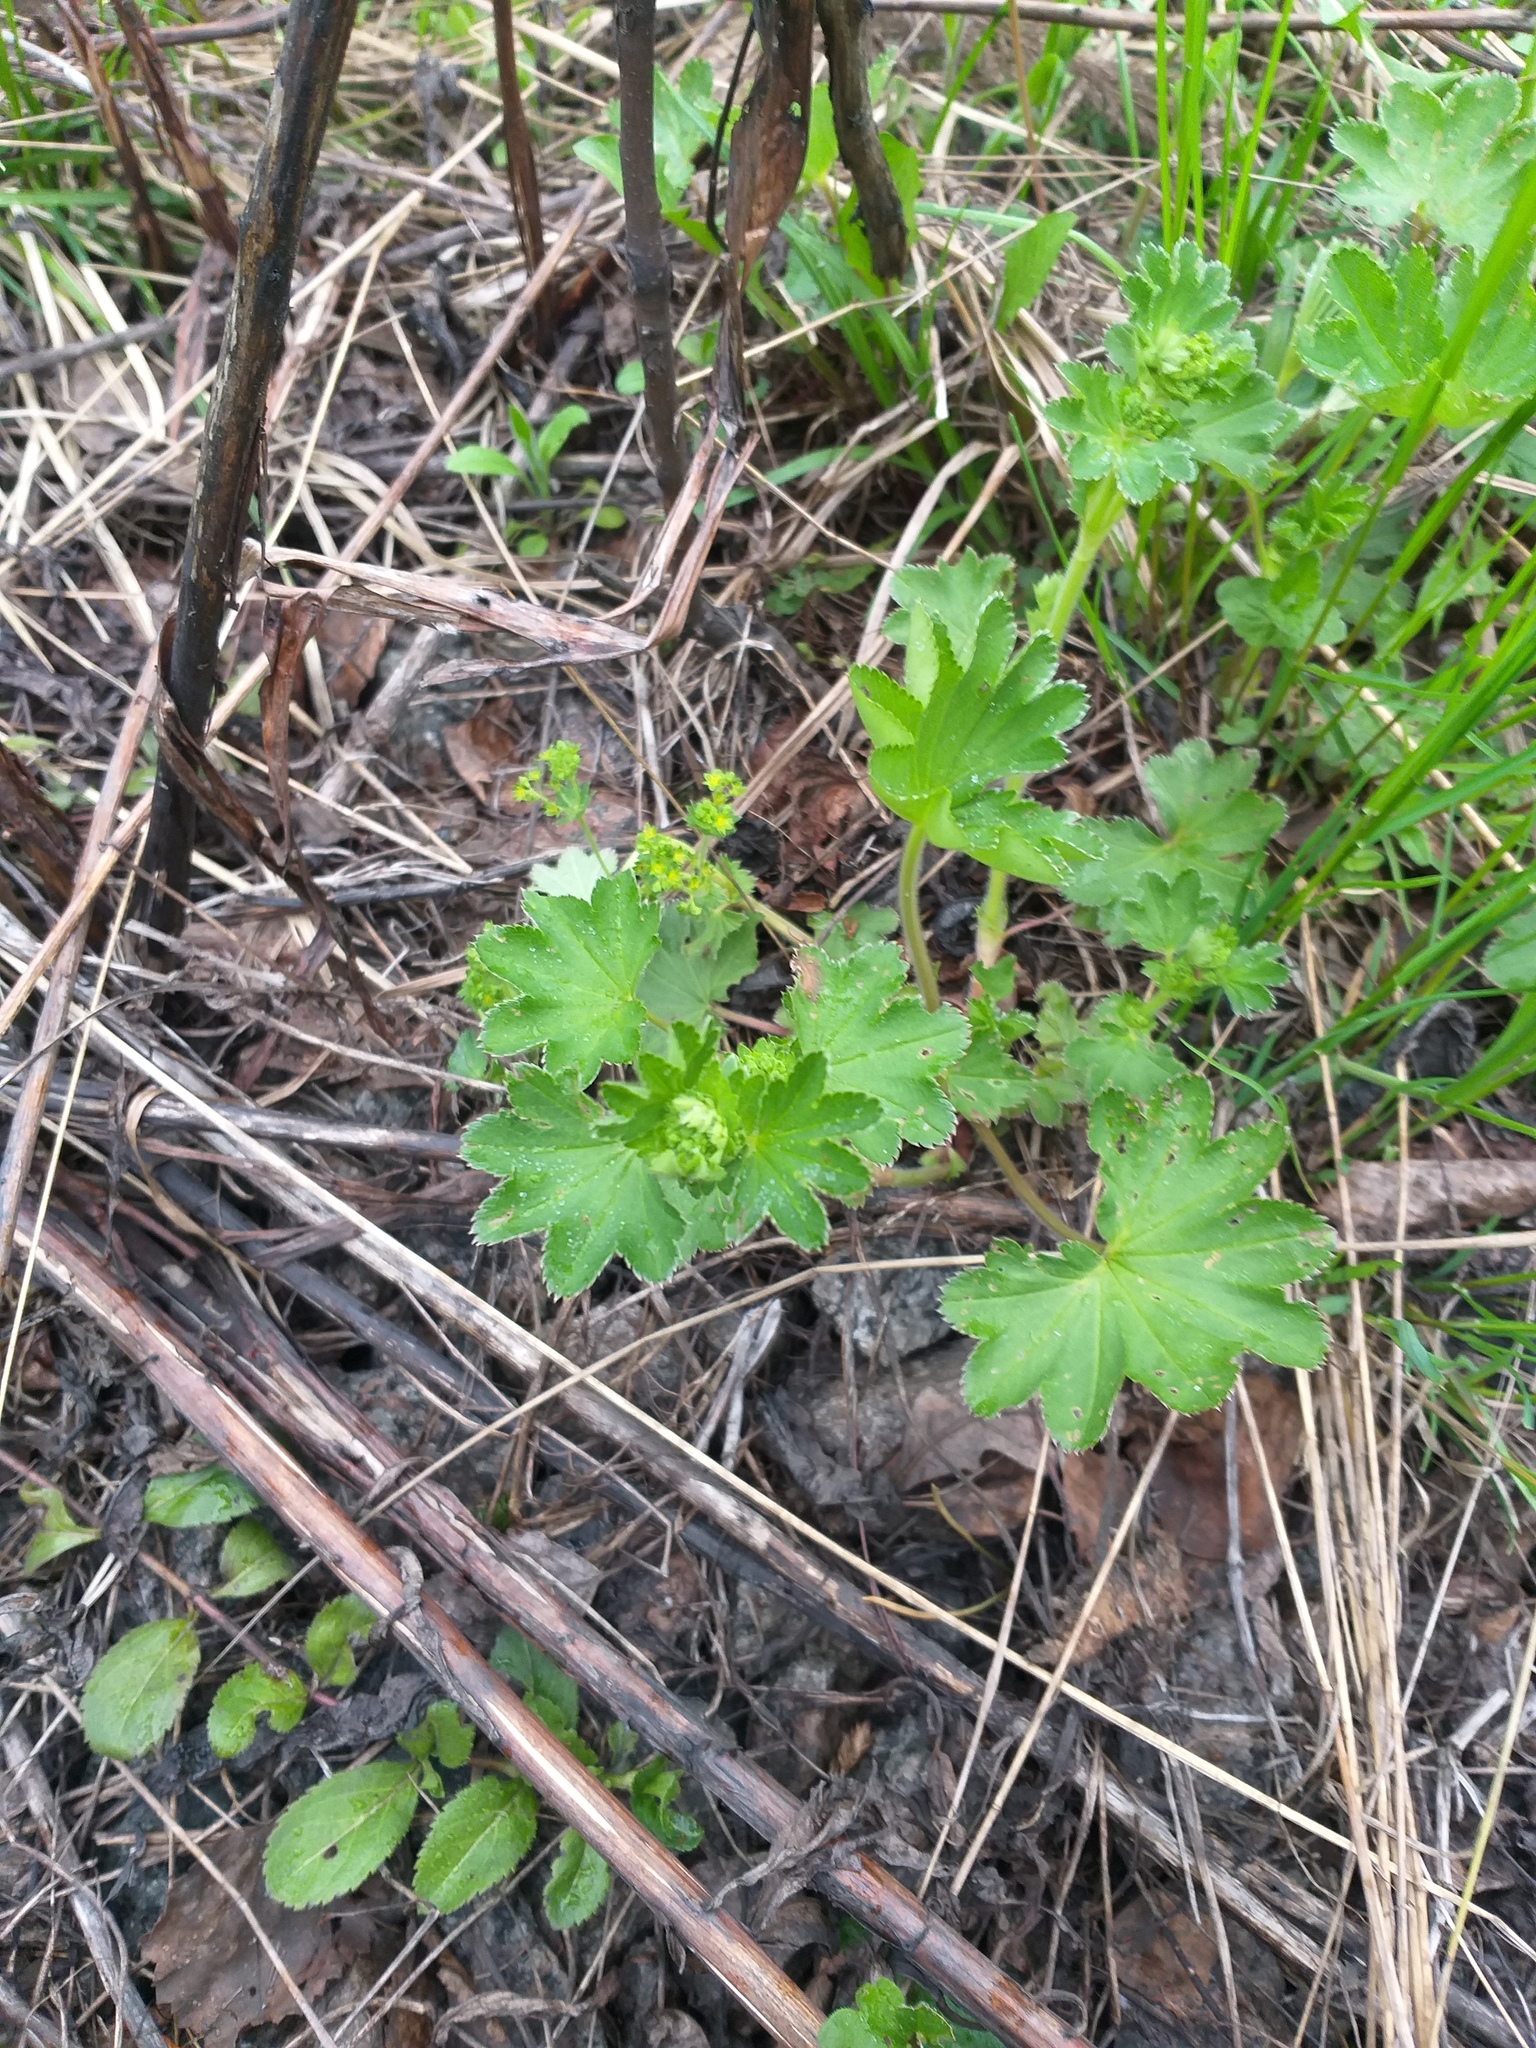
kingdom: Plantae
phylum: Tracheophyta
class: Magnoliopsida
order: Rosales
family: Rosaceae
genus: Alchemilla
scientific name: Alchemilla
